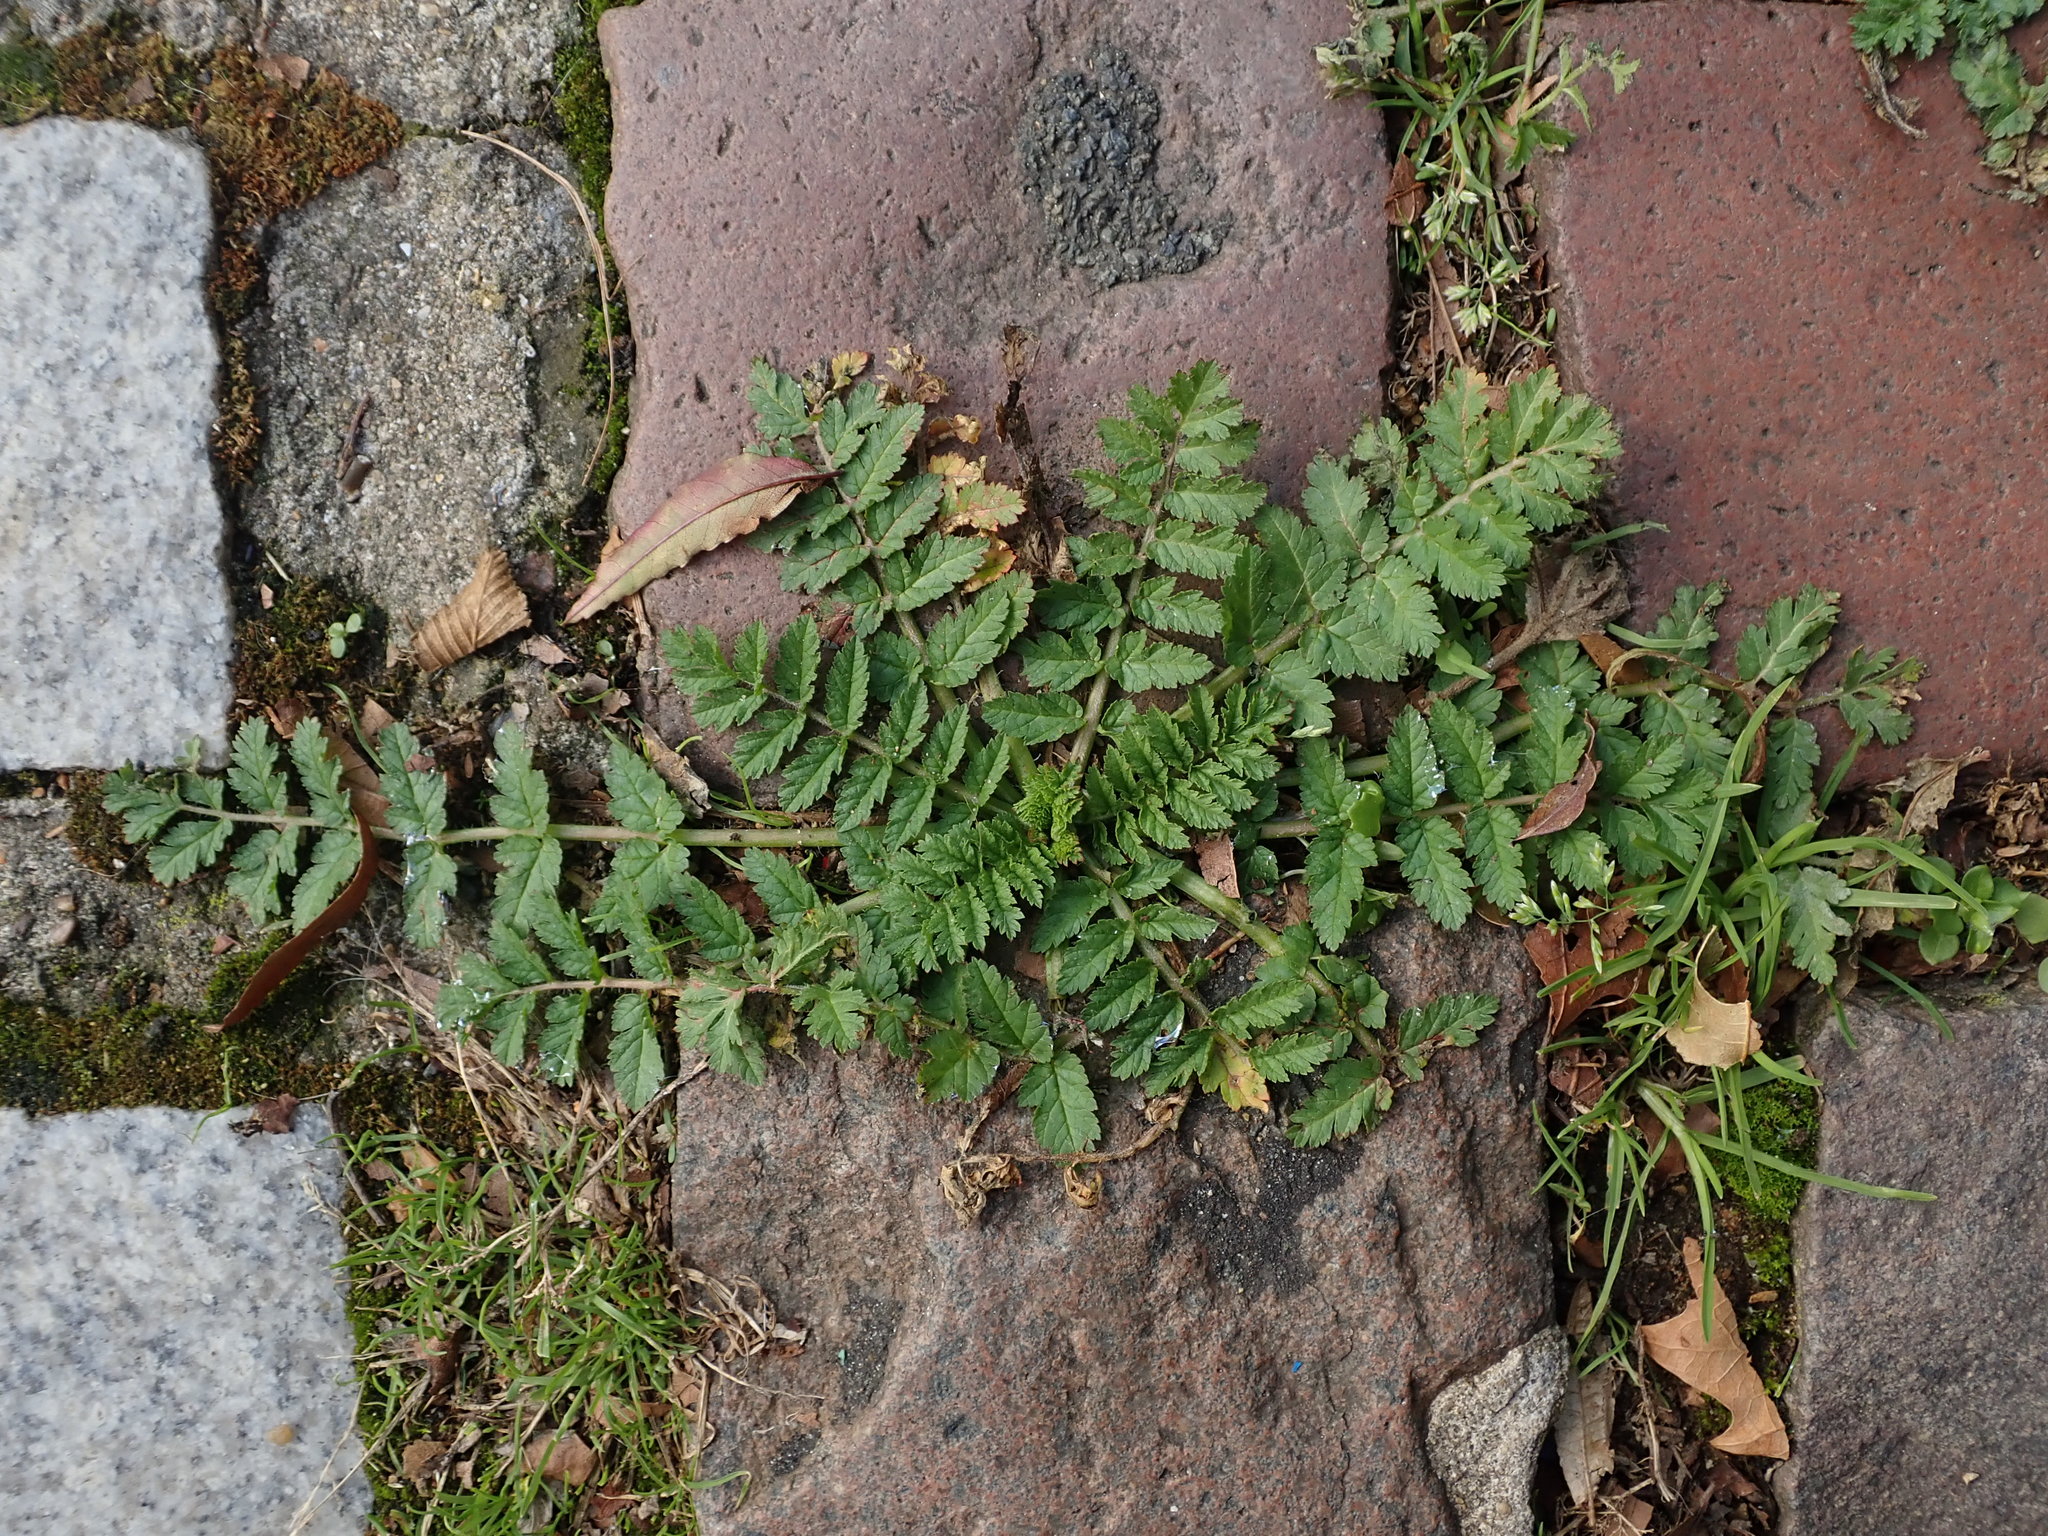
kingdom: Plantae
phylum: Tracheophyta
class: Magnoliopsida
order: Geraniales
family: Geraniaceae
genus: Erodium
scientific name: Erodium moschatum
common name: Musk stork's-bill
